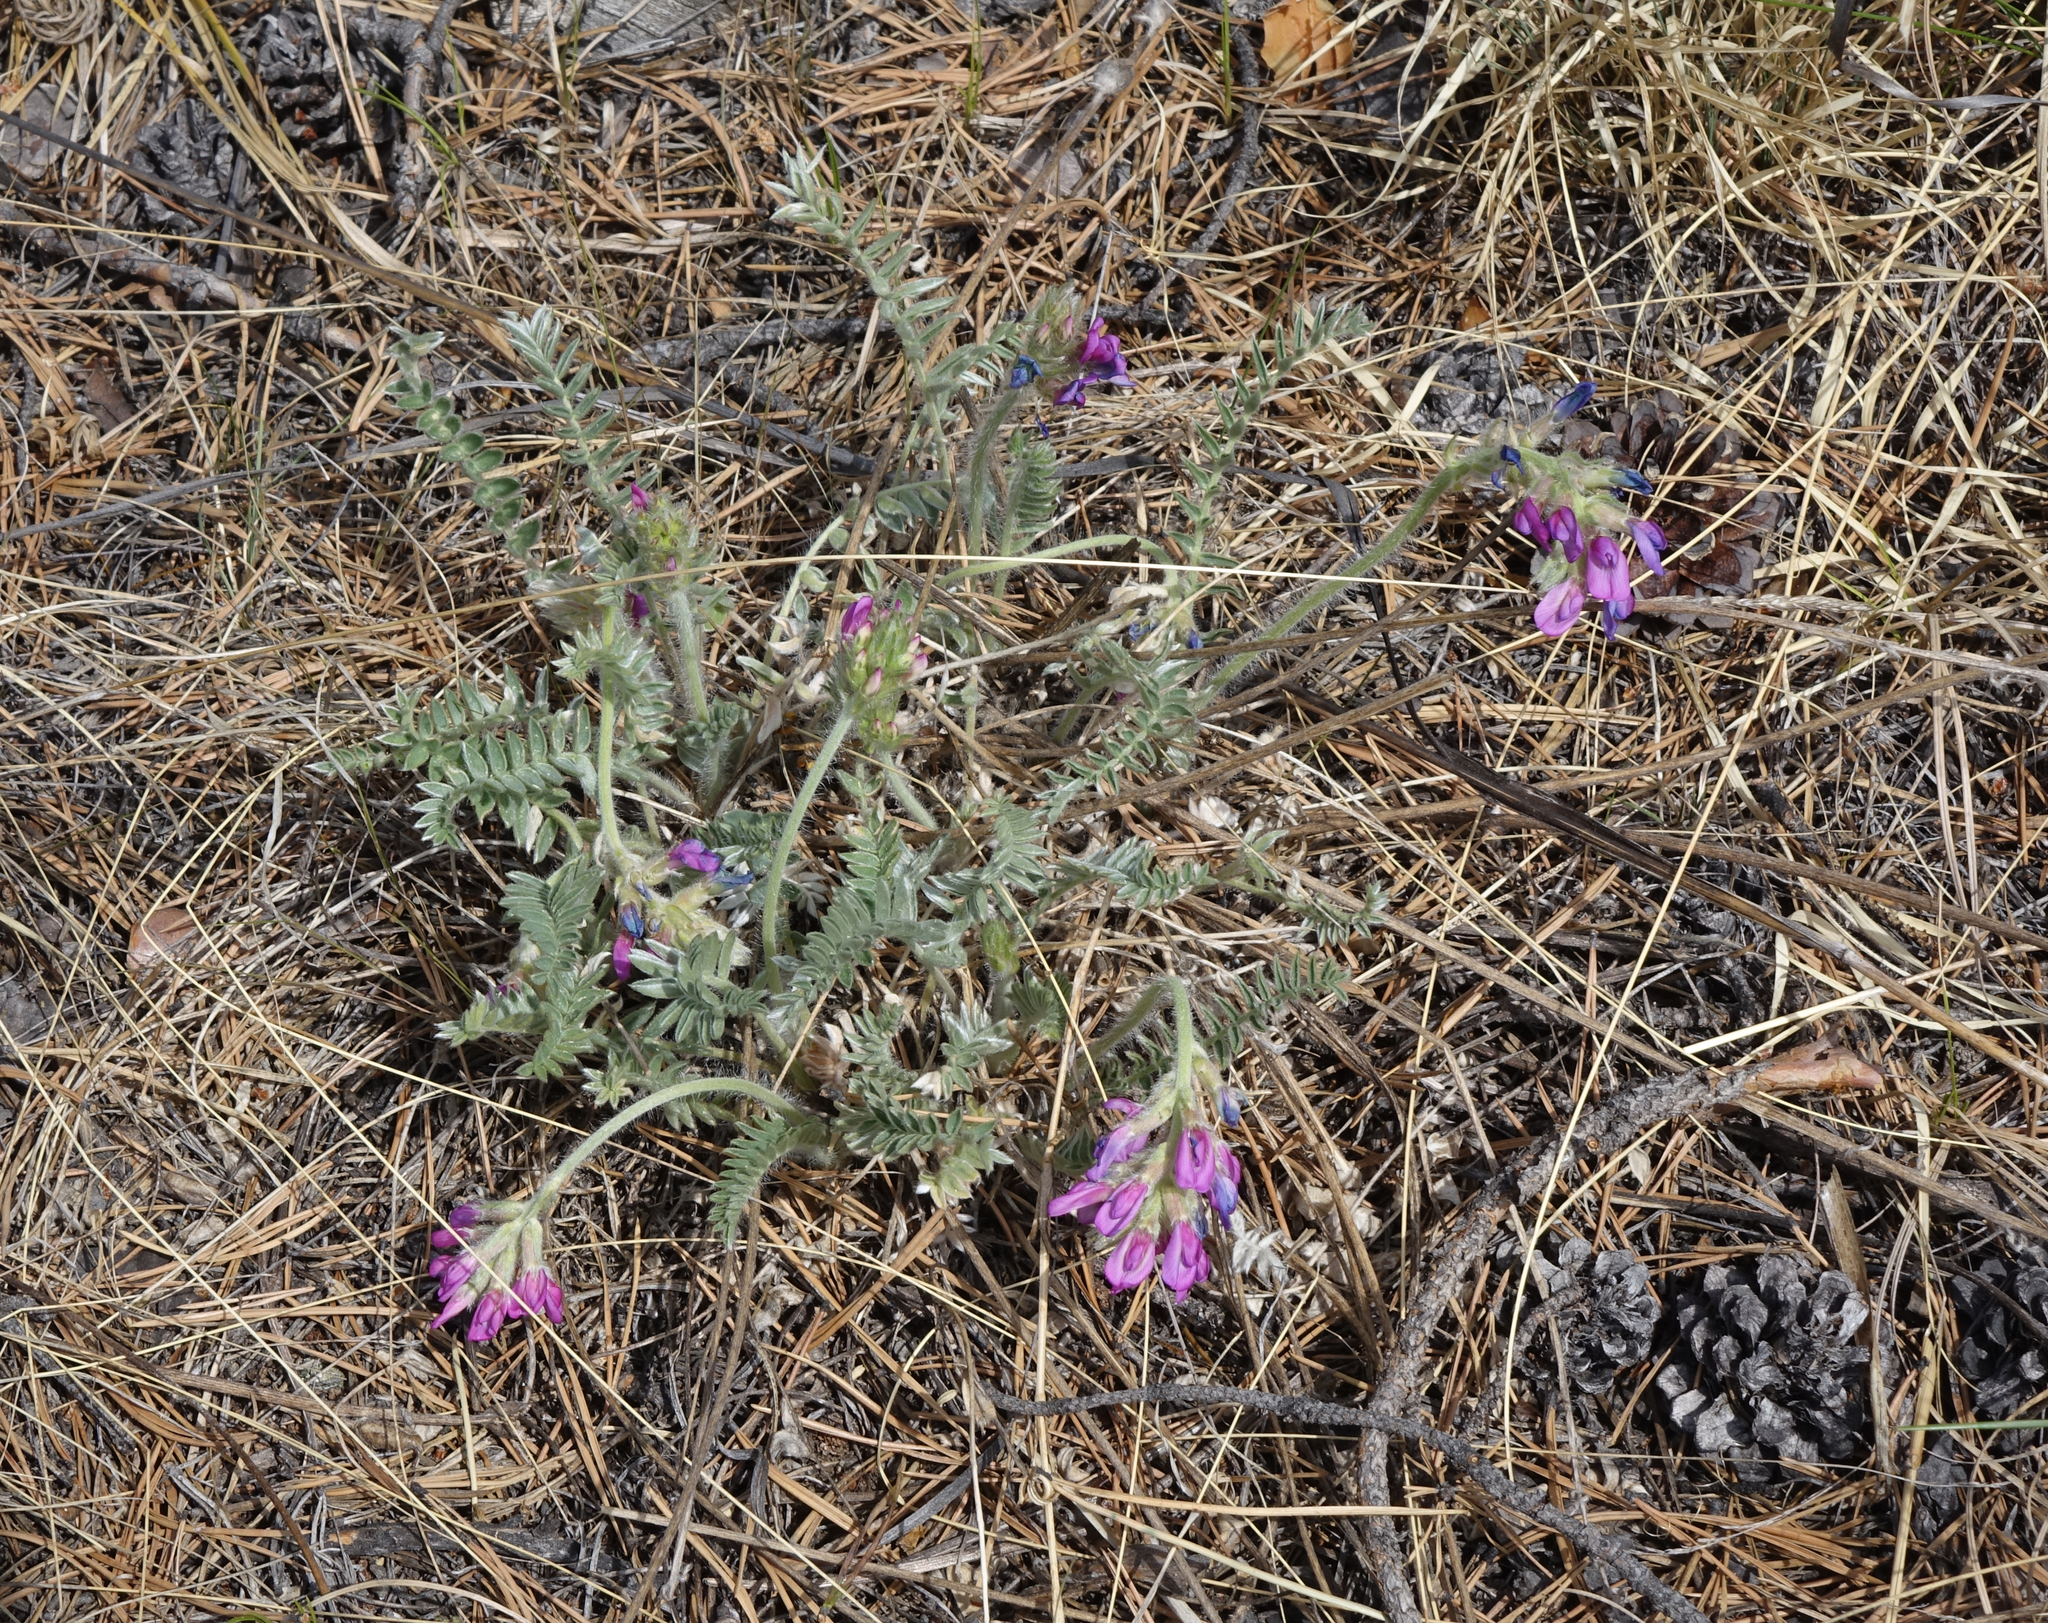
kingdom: Plantae
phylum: Tracheophyta
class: Magnoliopsida
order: Fabales
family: Fabaceae
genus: Oxytropis
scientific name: Oxytropis strobilacea
